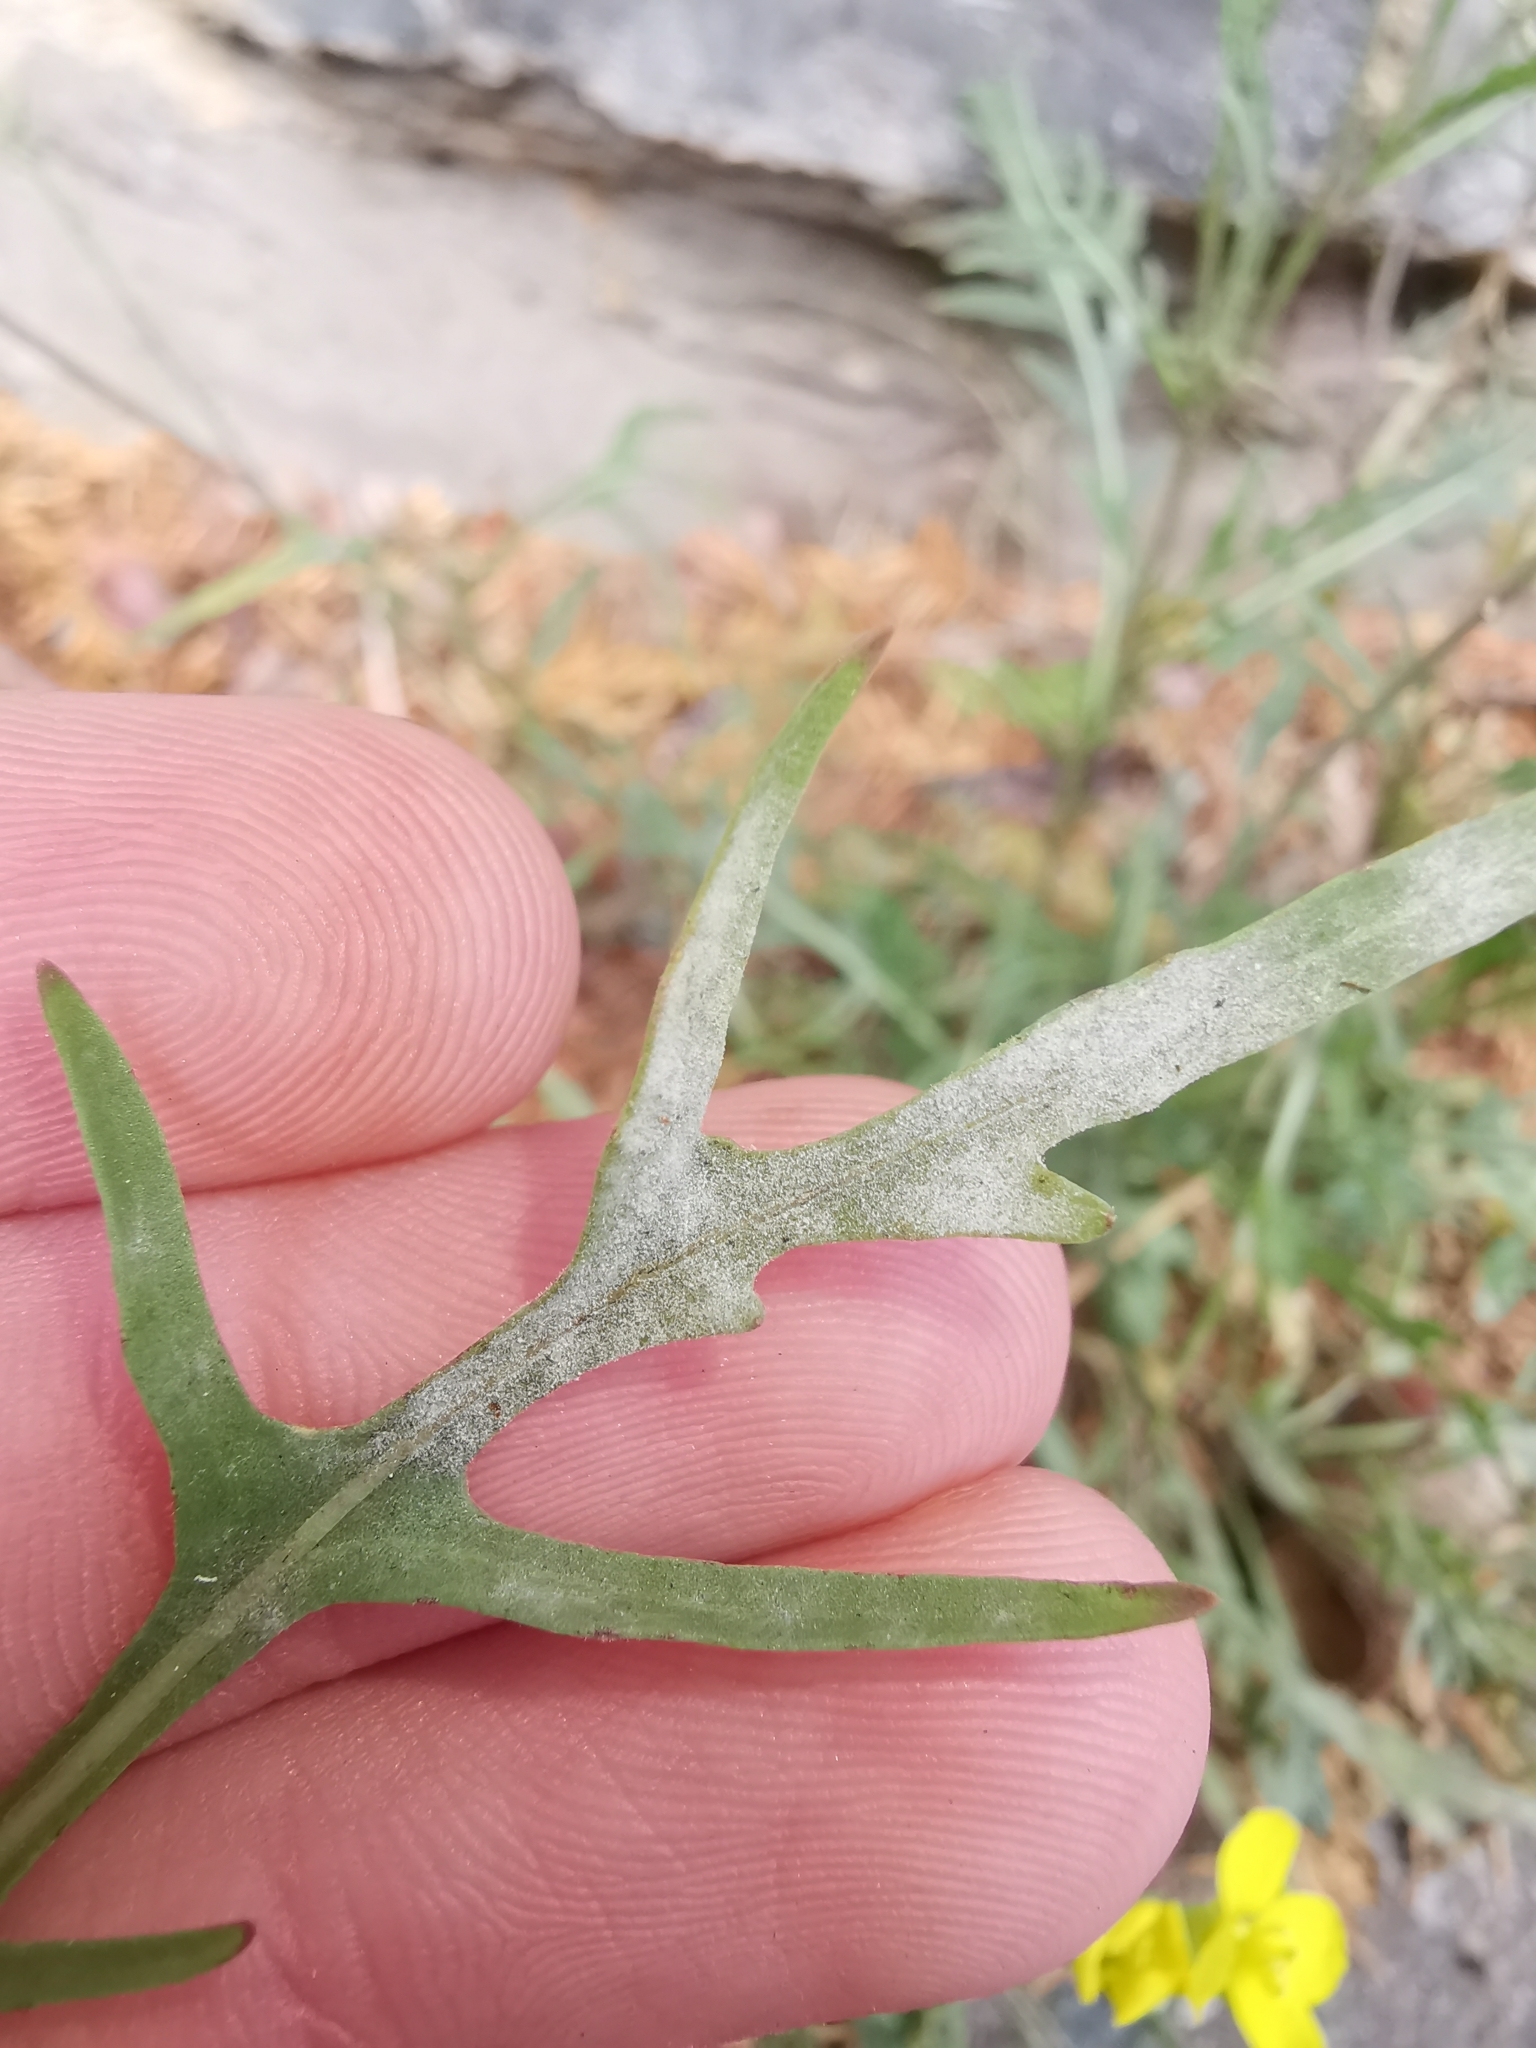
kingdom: Fungi
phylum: Ascomycota
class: Leotiomycetes
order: Helotiales
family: Erysiphaceae
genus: Erysiphe
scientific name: Erysiphe cruciferarum
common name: Brassica powdery mildew
